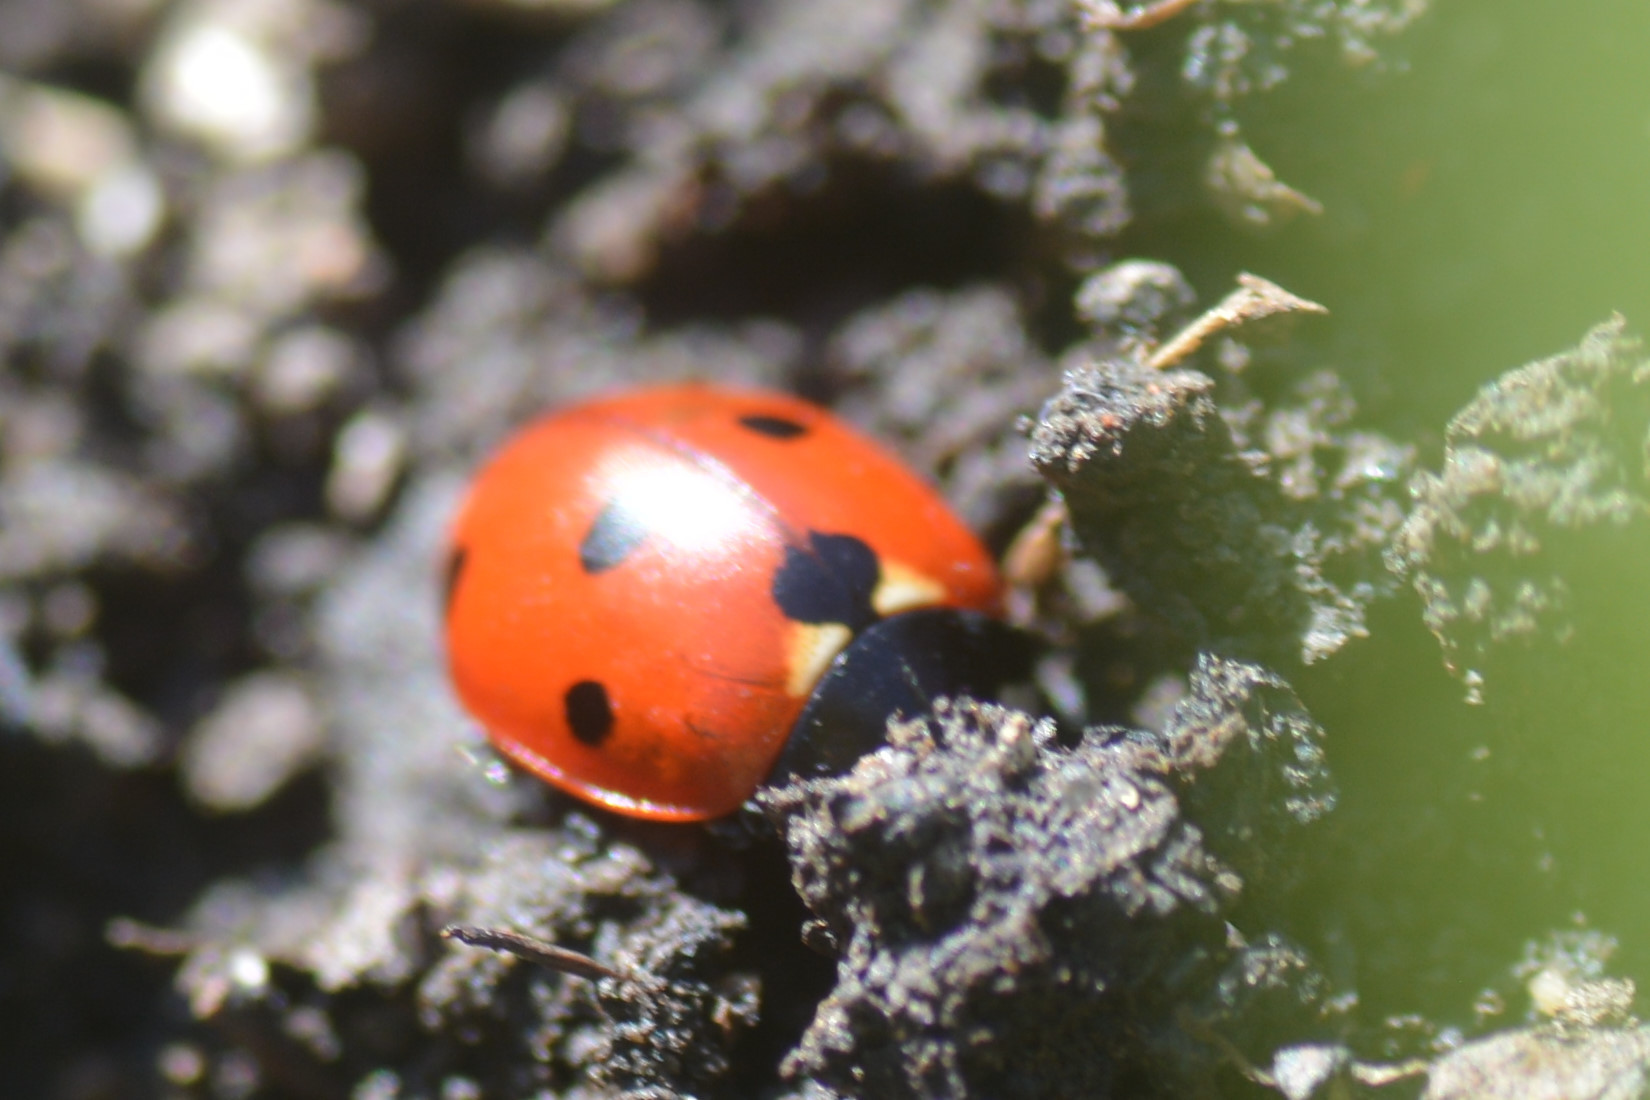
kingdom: Animalia
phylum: Arthropoda
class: Insecta
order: Coleoptera
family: Coccinellidae
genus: Coccinella
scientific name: Coccinella septempunctata
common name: Sevenspotted lady beetle
